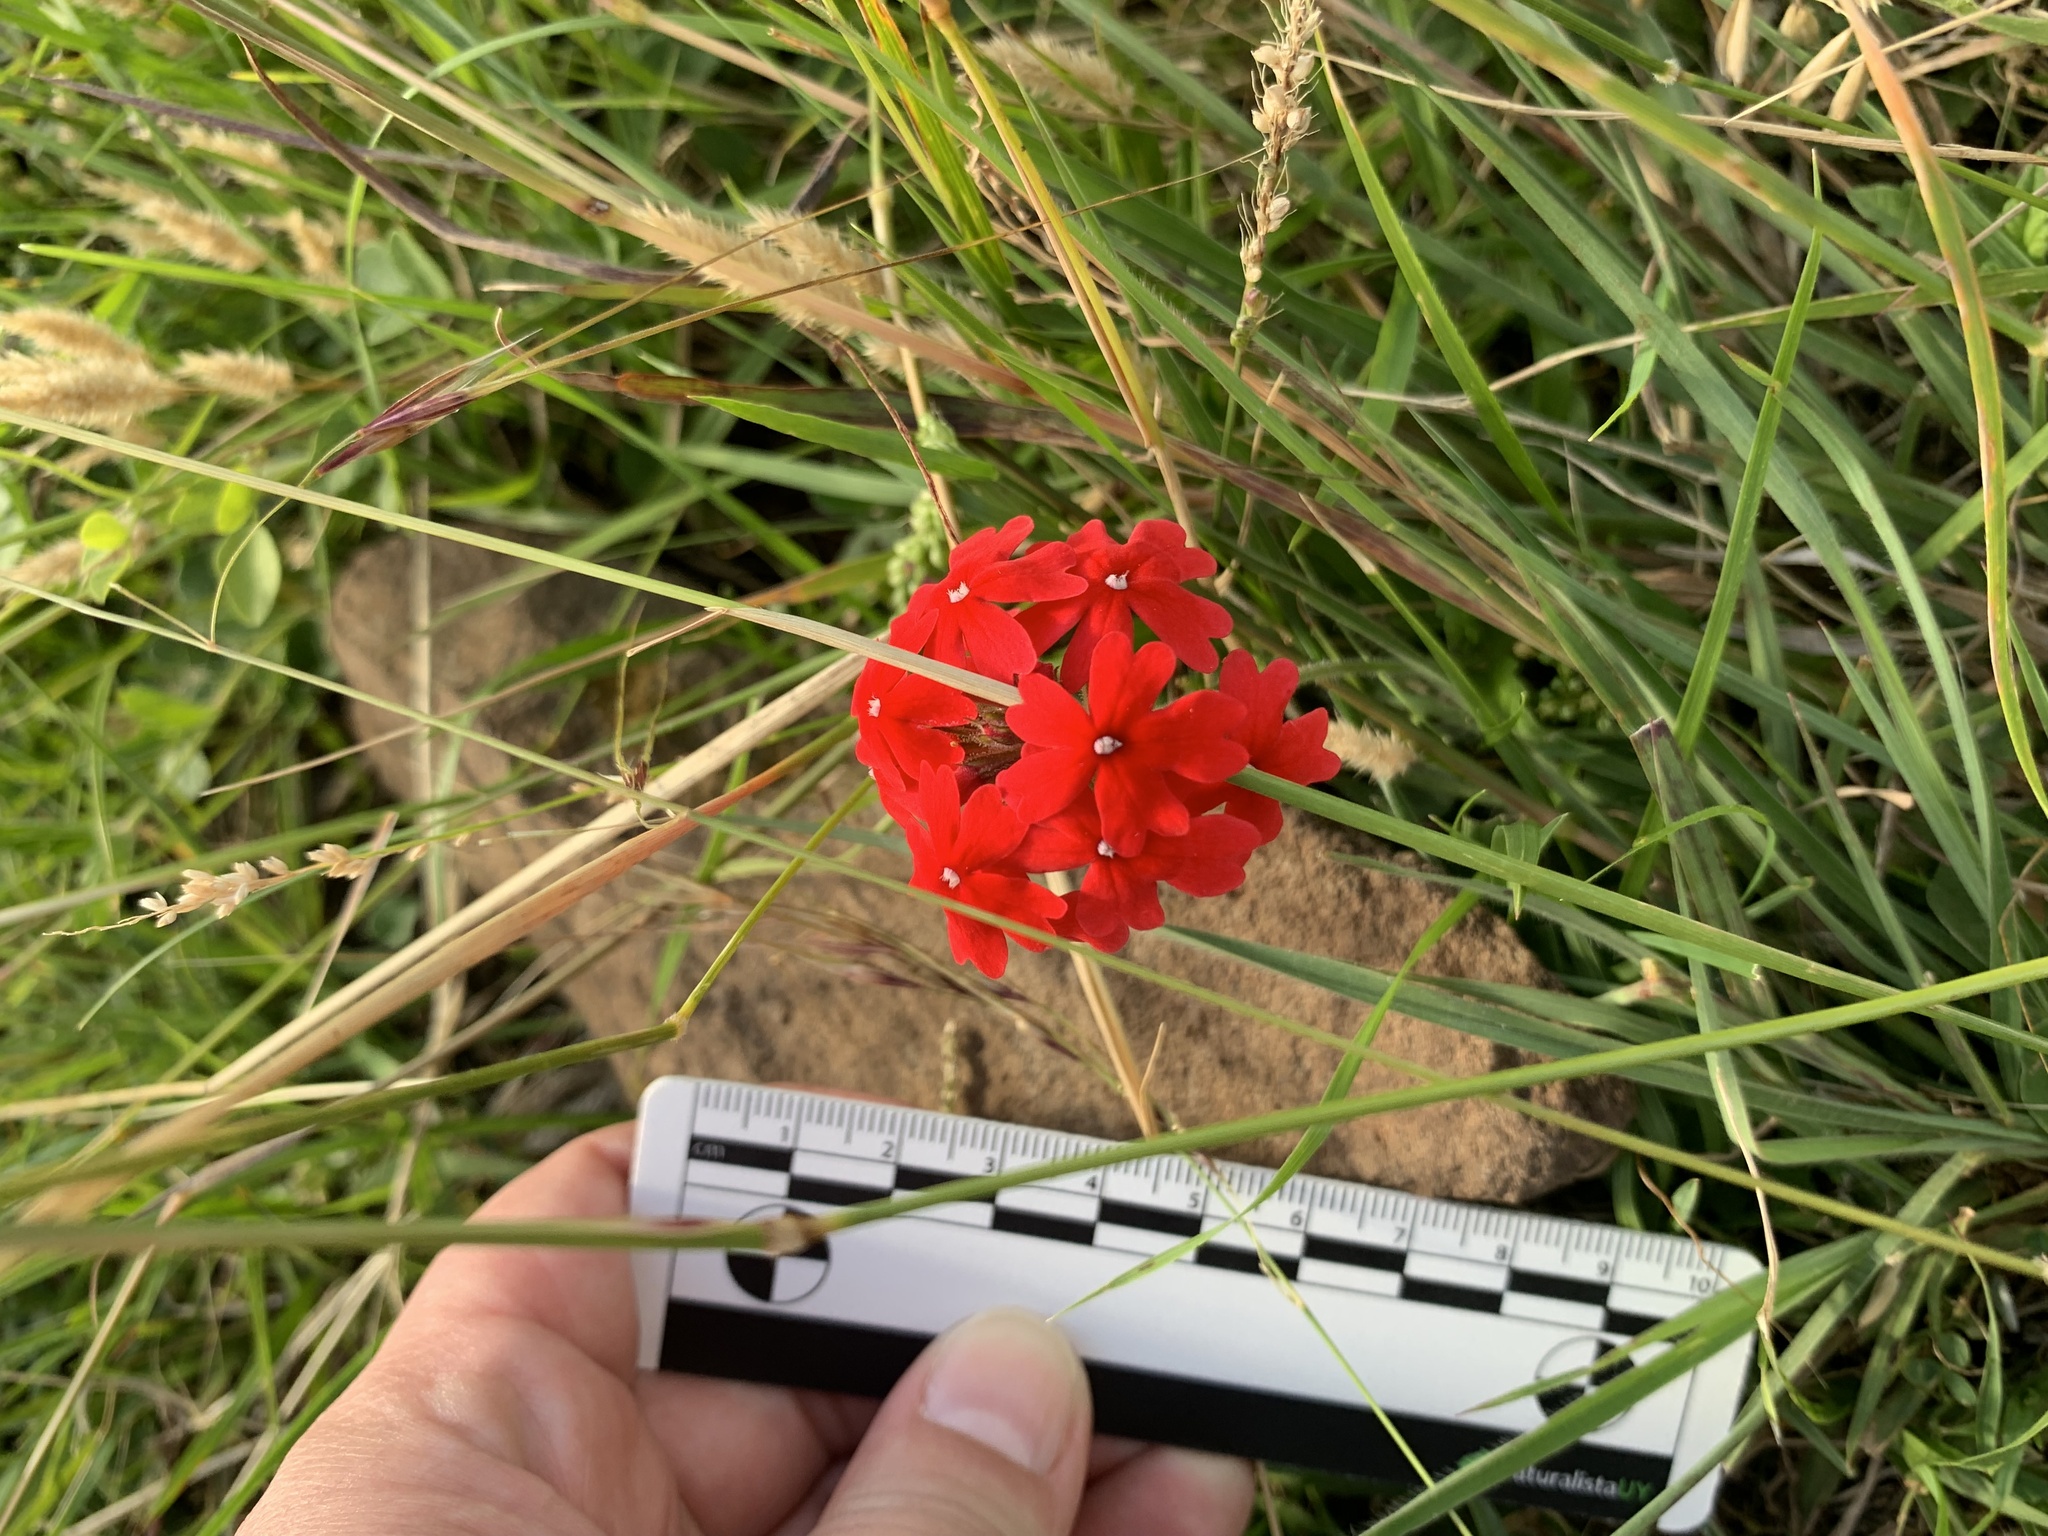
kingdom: Plantae
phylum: Tracheophyta
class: Magnoliopsida
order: Lamiales
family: Verbenaceae
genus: Verbena
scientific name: Verbena peruviana
